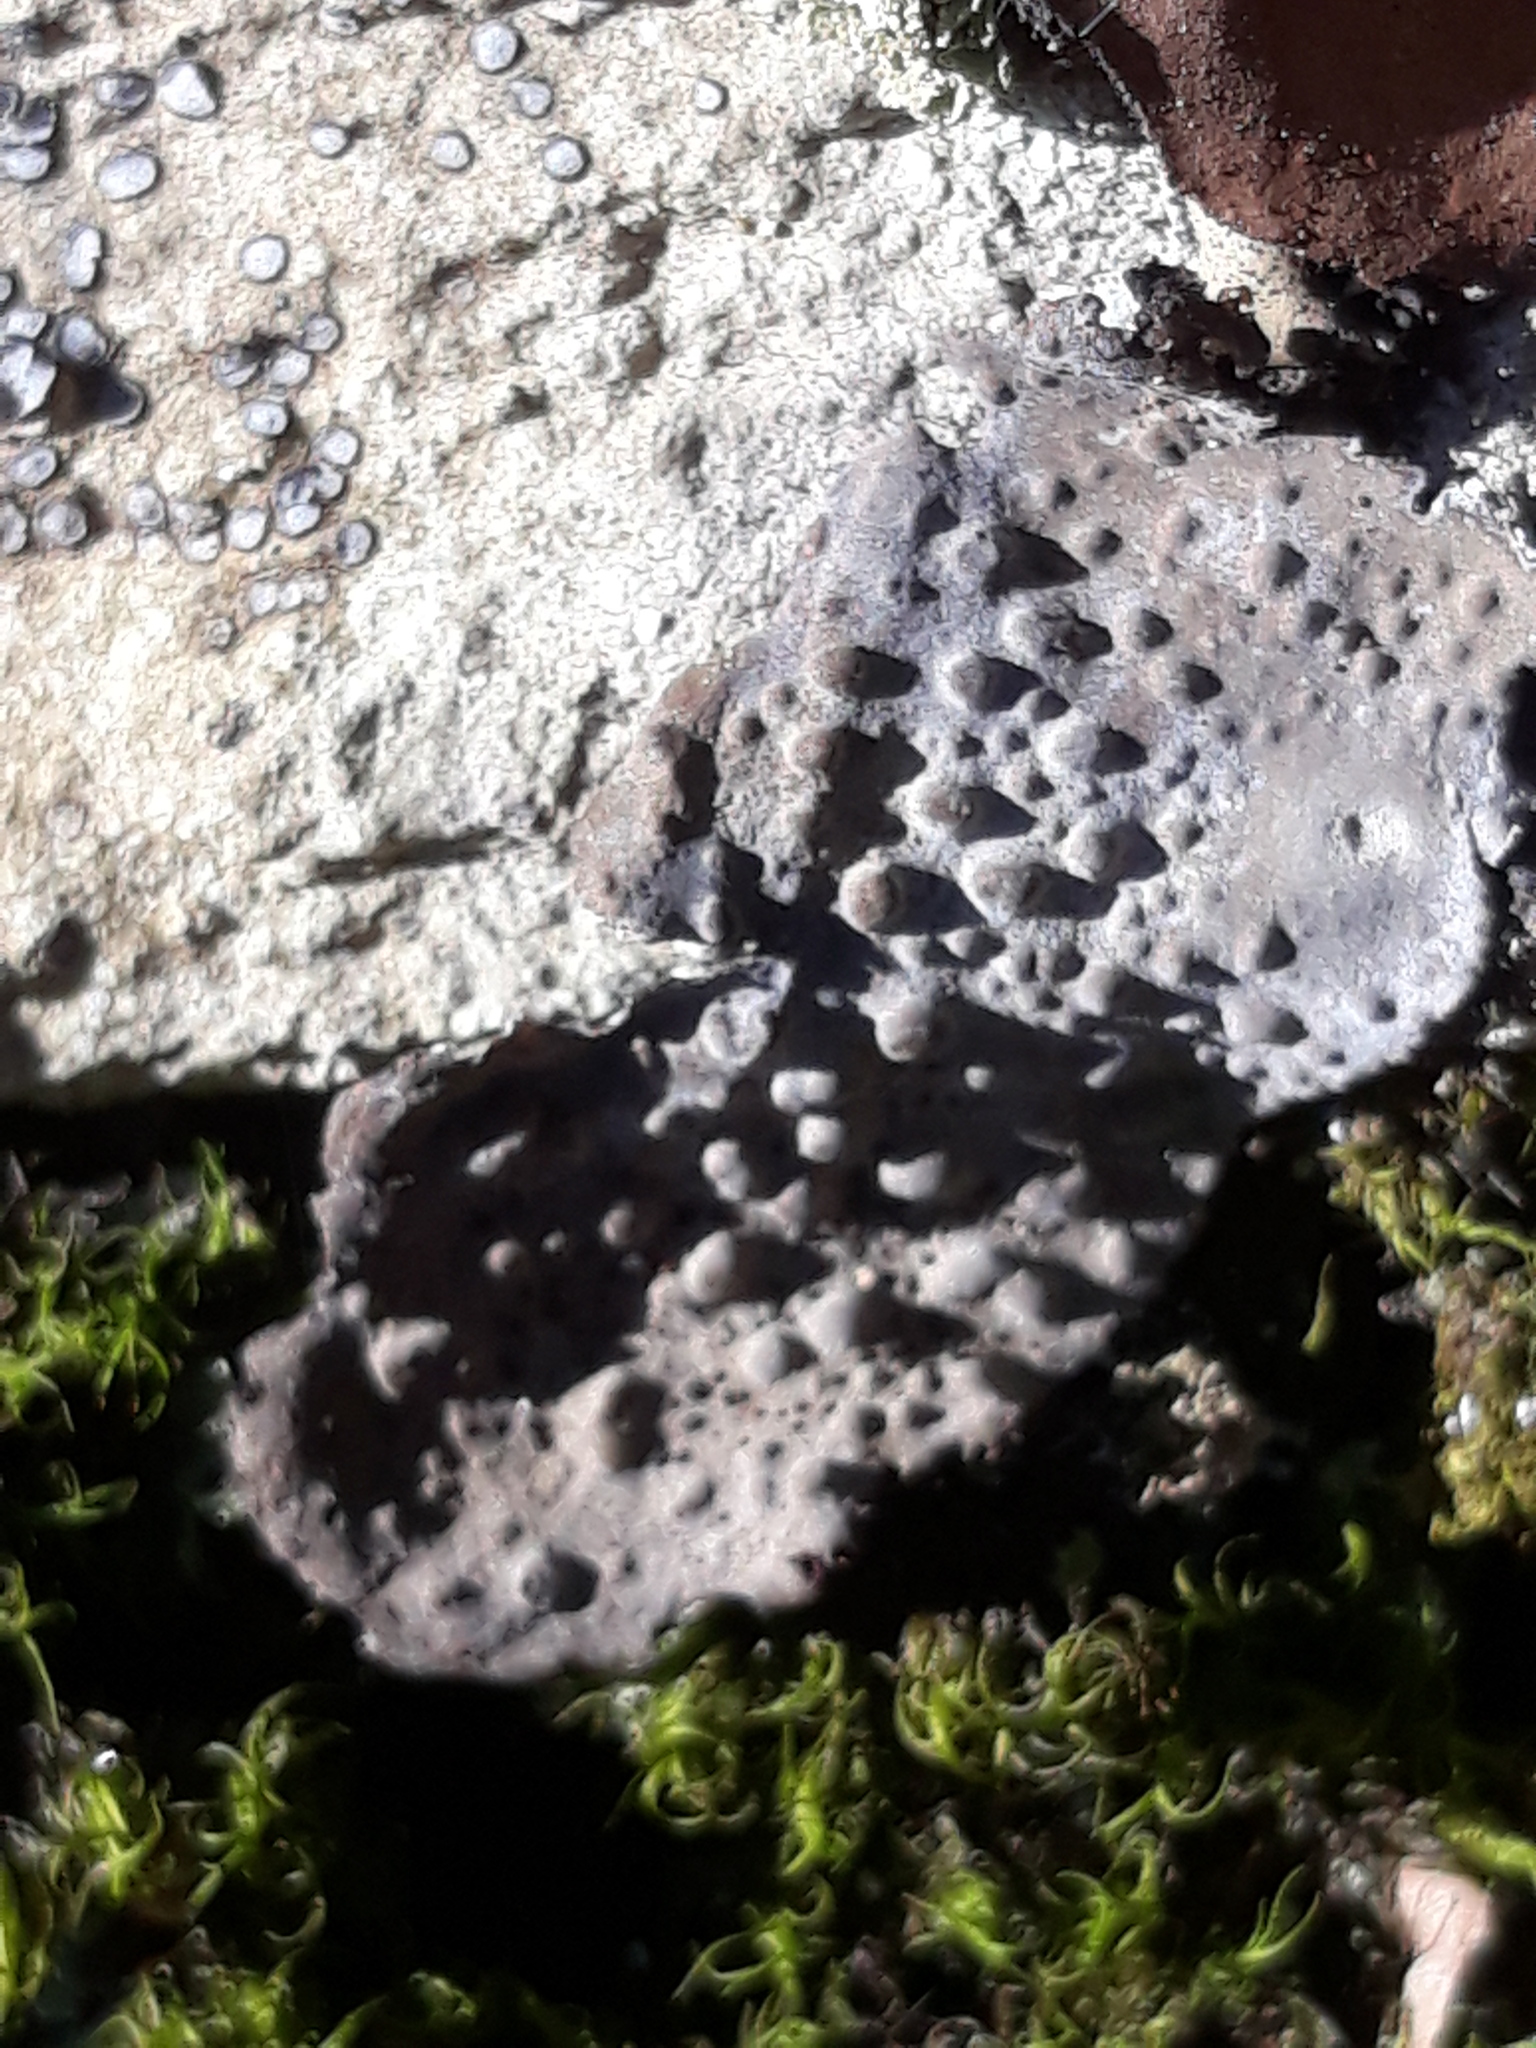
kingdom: Fungi
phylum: Ascomycota
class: Lecanoromycetes
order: Umbilicariales
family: Umbilicariaceae
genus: Lasallia
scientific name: Lasallia papulosa
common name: Common toadskin lichen
